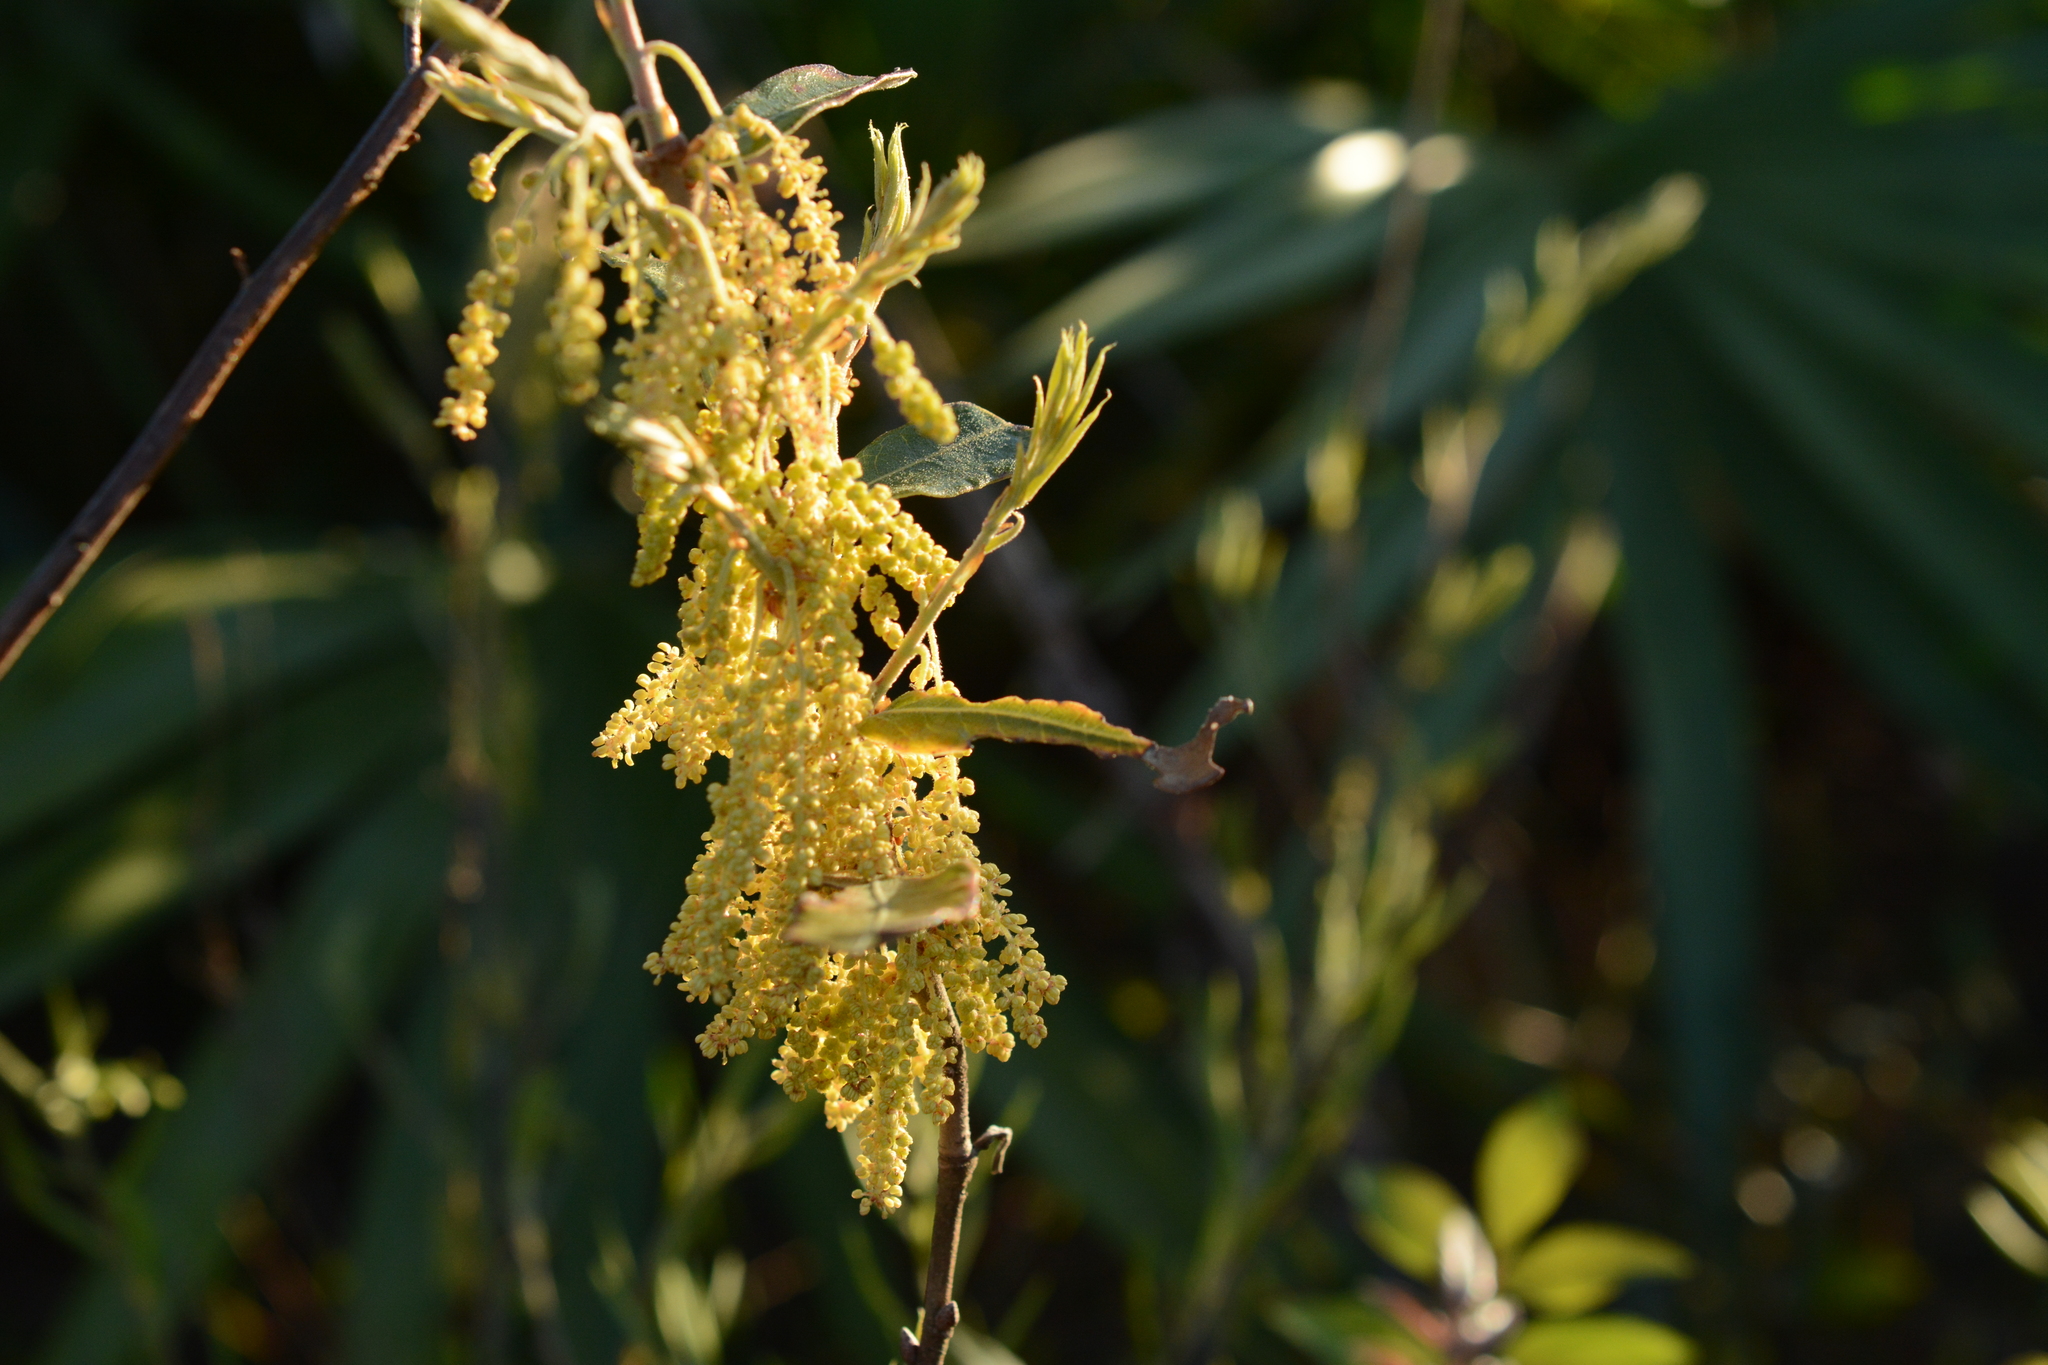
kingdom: Plantae
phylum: Tracheophyta
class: Magnoliopsida
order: Fagales
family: Fagaceae
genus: Quercus
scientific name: Quercus pumila
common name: Runner oak
